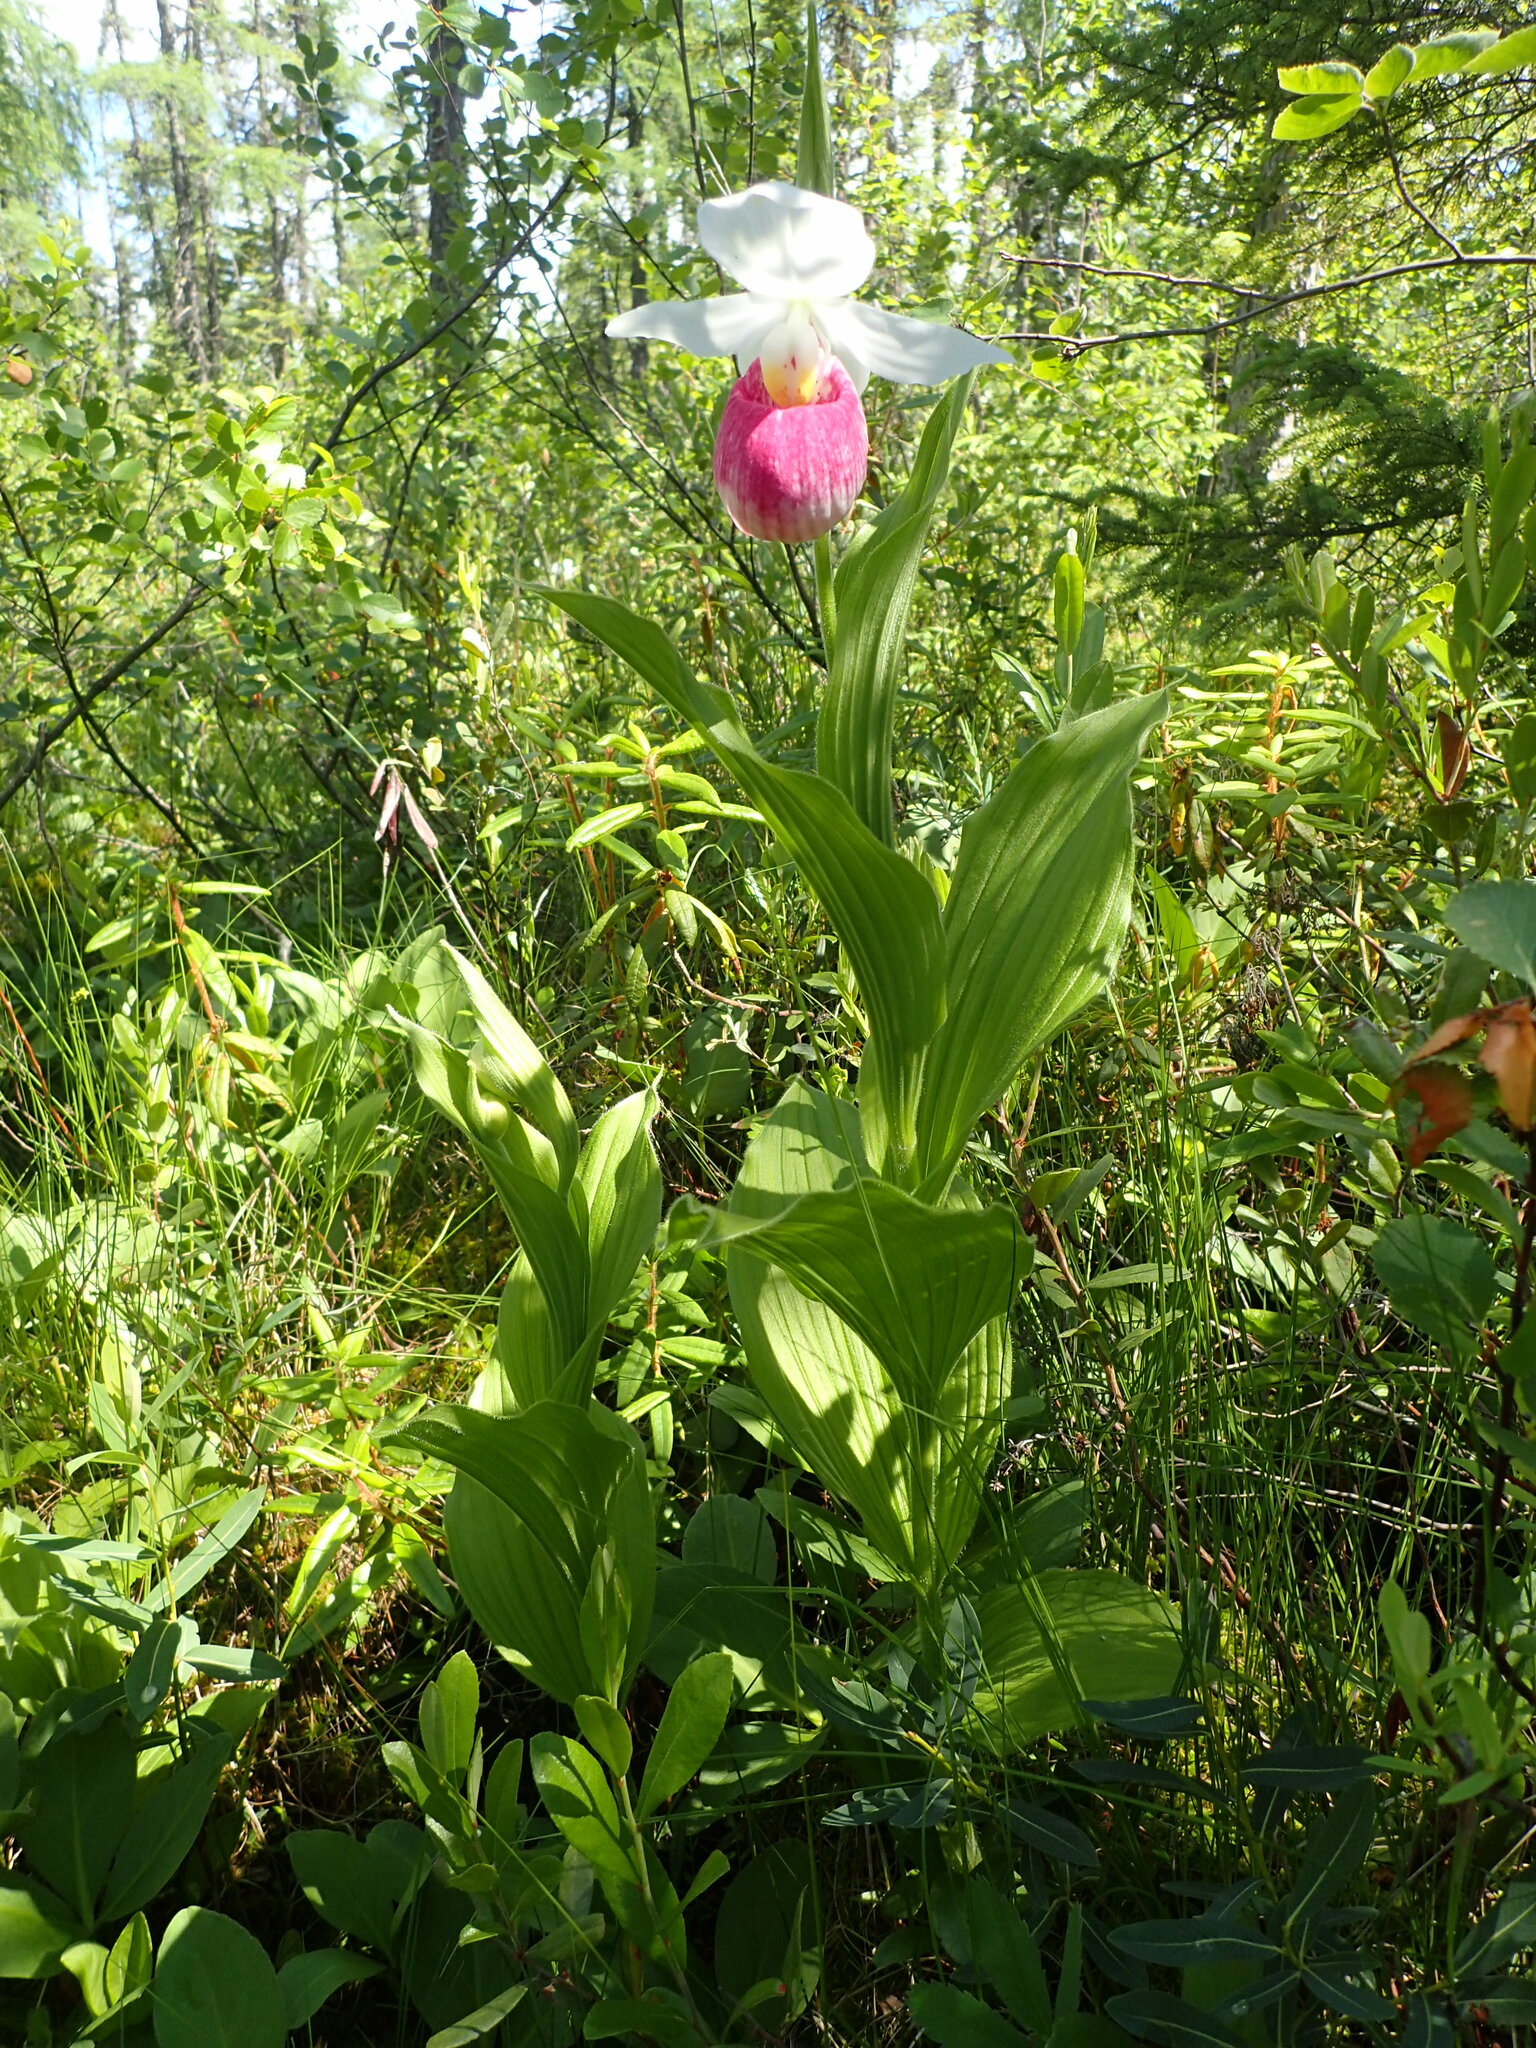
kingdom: Plantae
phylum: Tracheophyta
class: Liliopsida
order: Asparagales
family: Orchidaceae
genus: Cypripedium
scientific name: Cypripedium reginae
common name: Queen lady's-slipper
